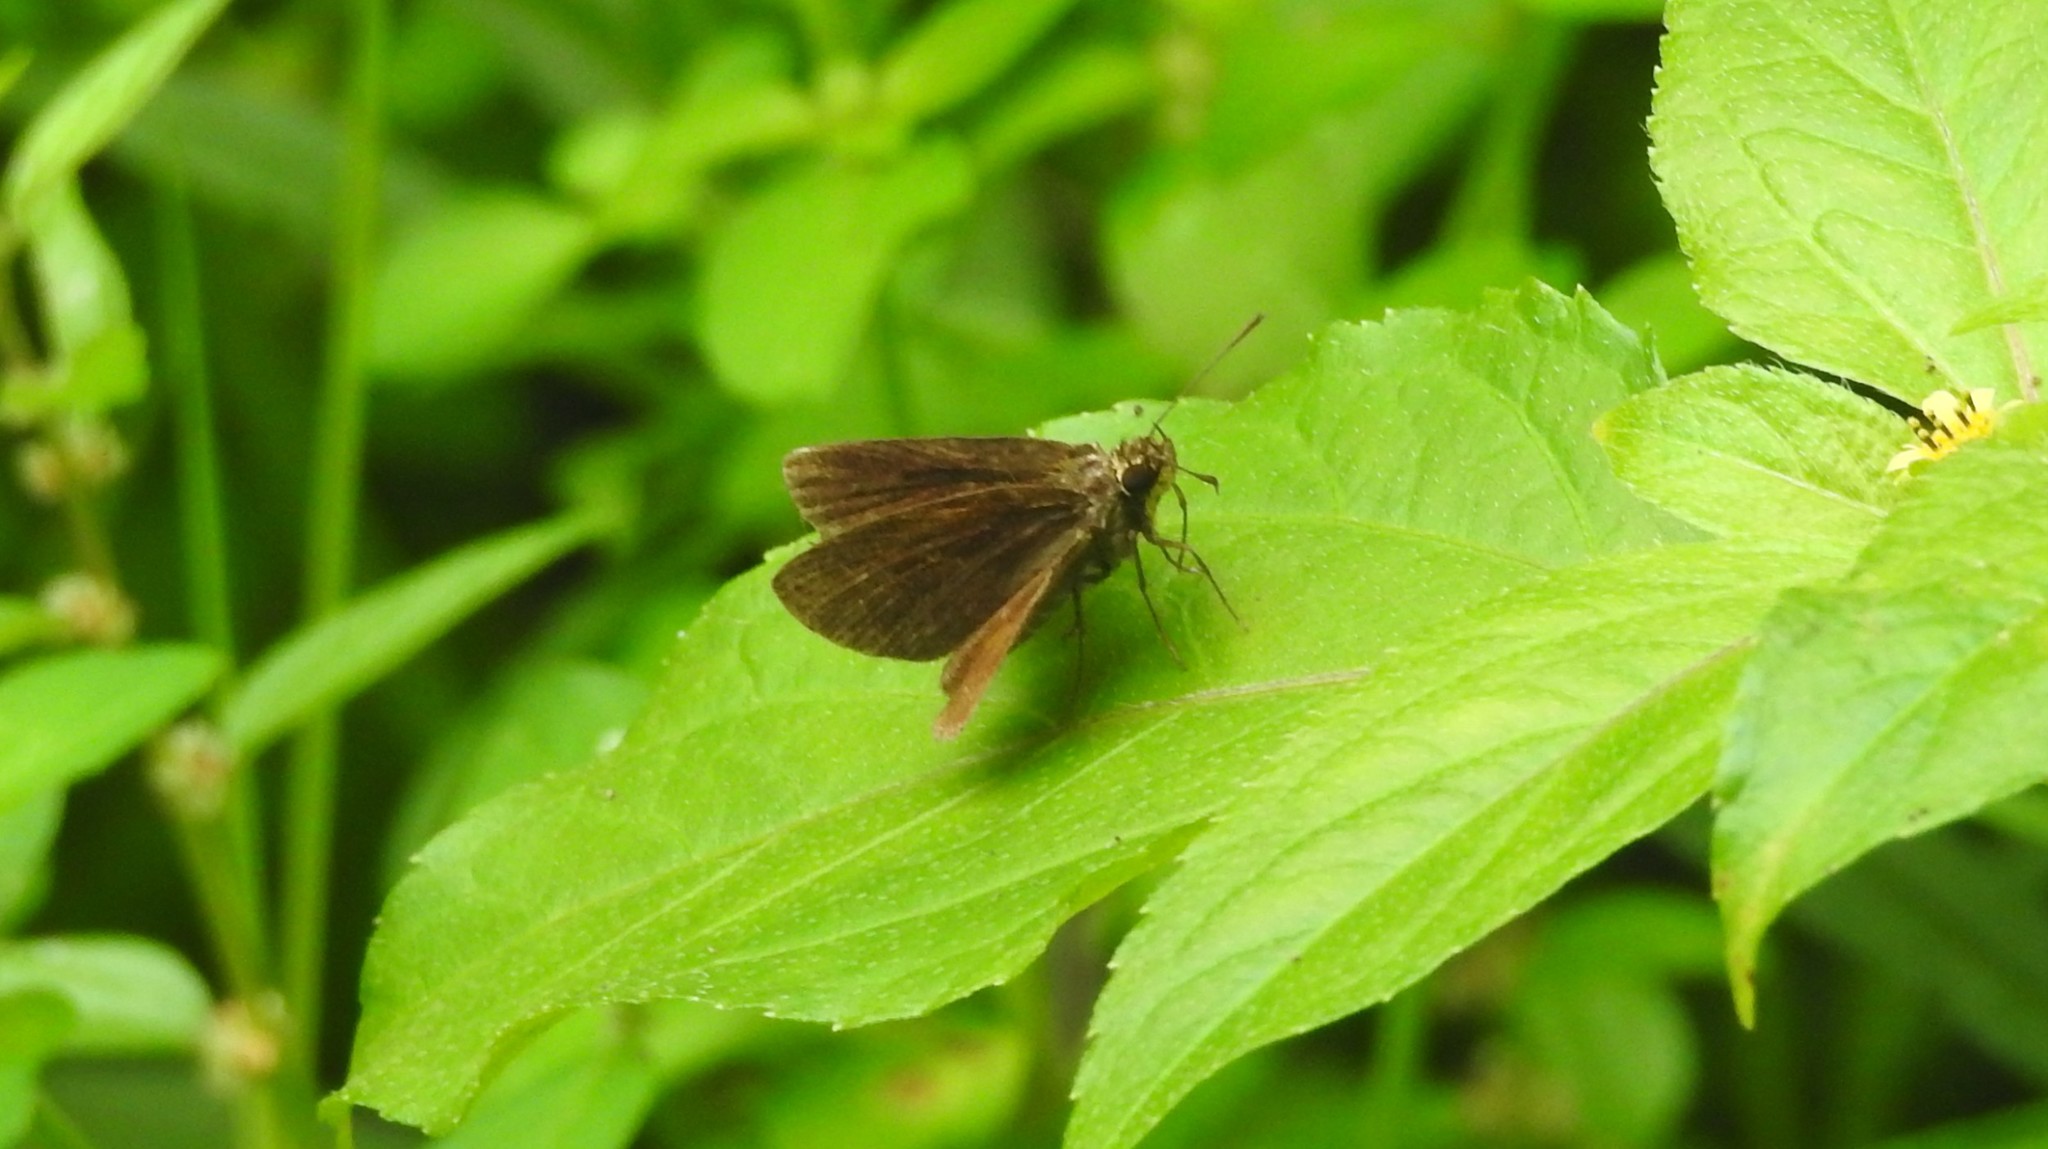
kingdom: Animalia
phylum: Arthropoda
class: Insecta
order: Lepidoptera
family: Hesperiidae
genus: Iambrix
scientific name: Iambrix salsala
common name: Chestnut bob
